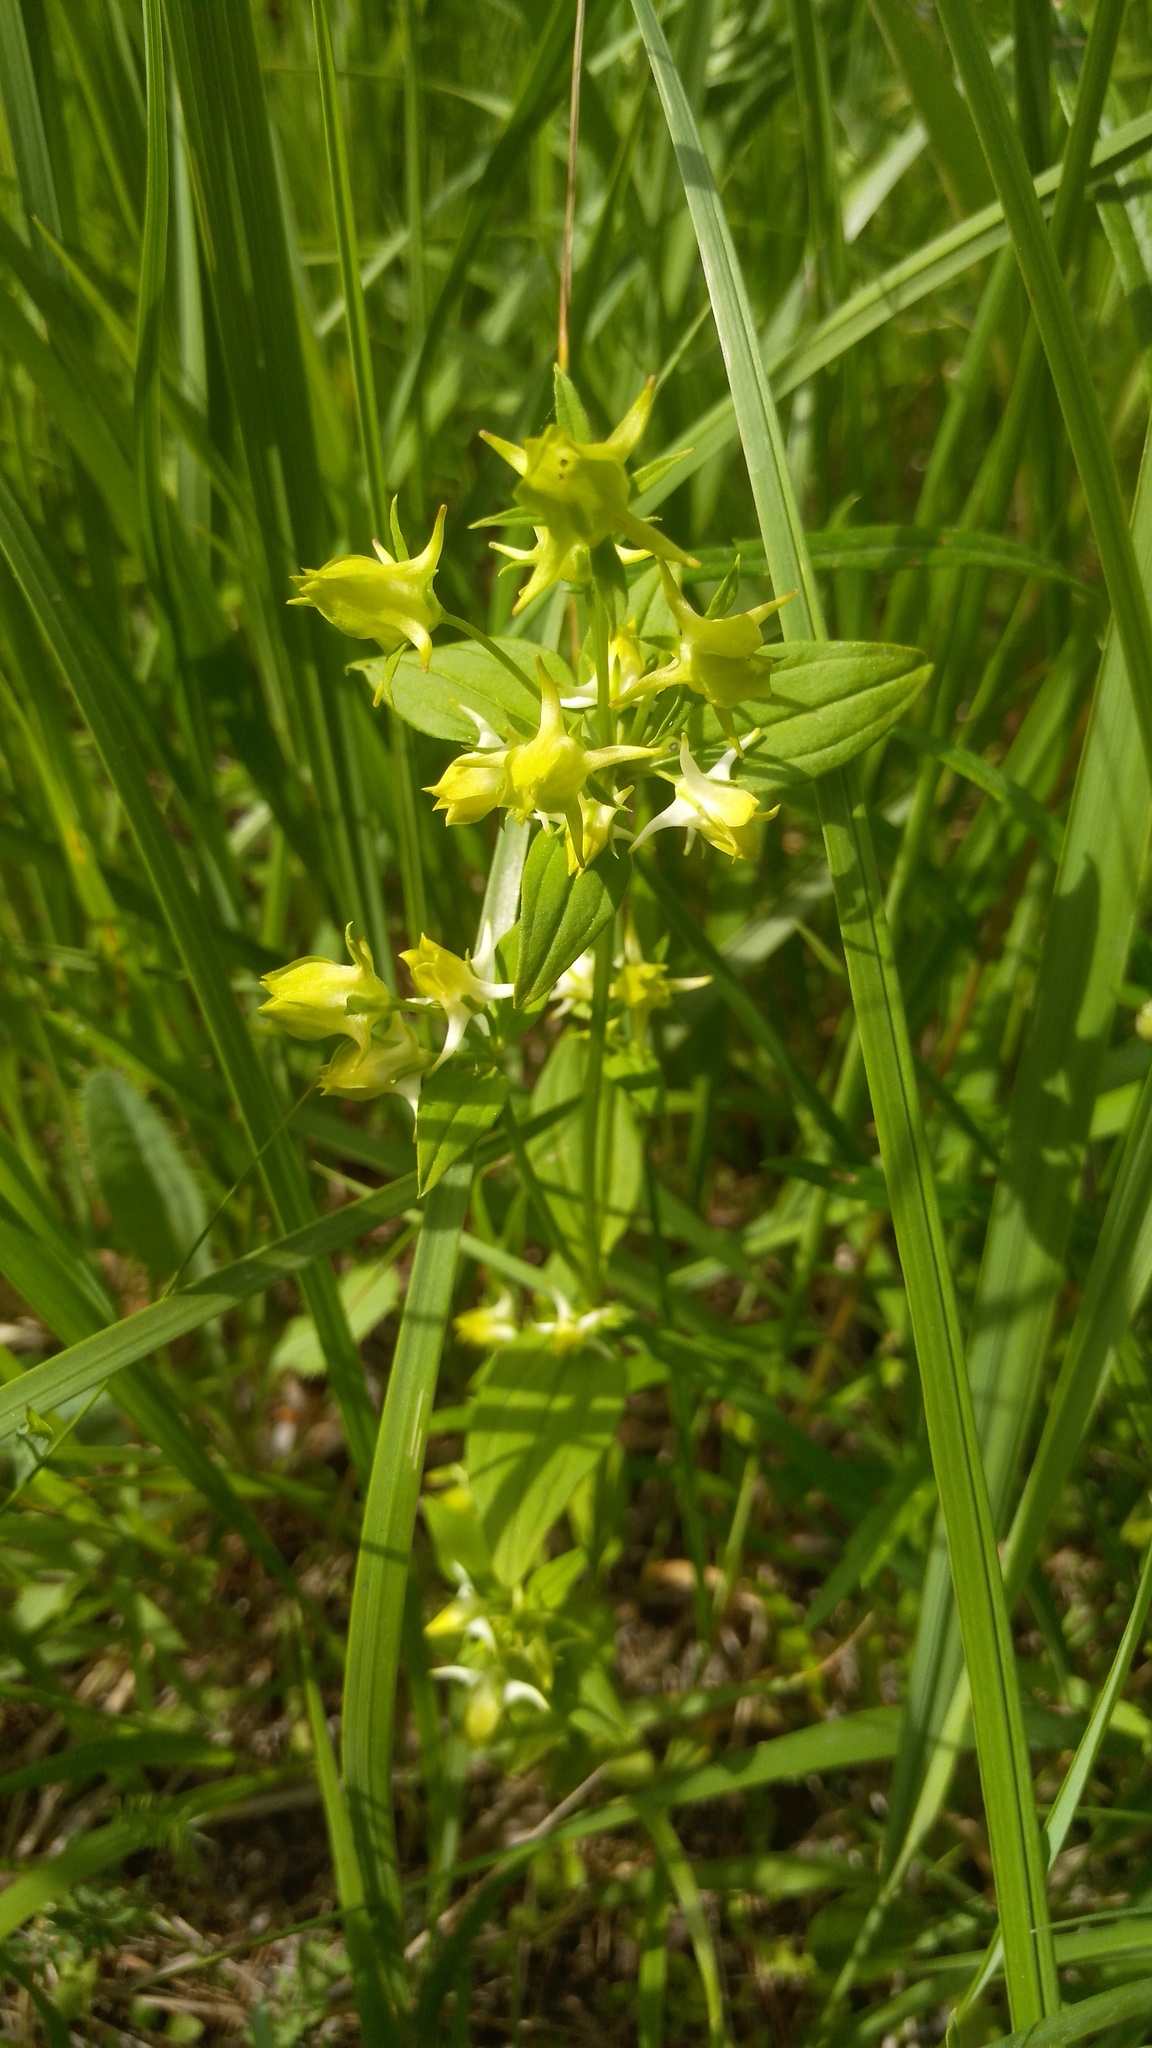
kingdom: Plantae
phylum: Tracheophyta
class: Magnoliopsida
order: Gentianales
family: Gentianaceae
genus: Halenia
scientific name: Halenia corniculata
